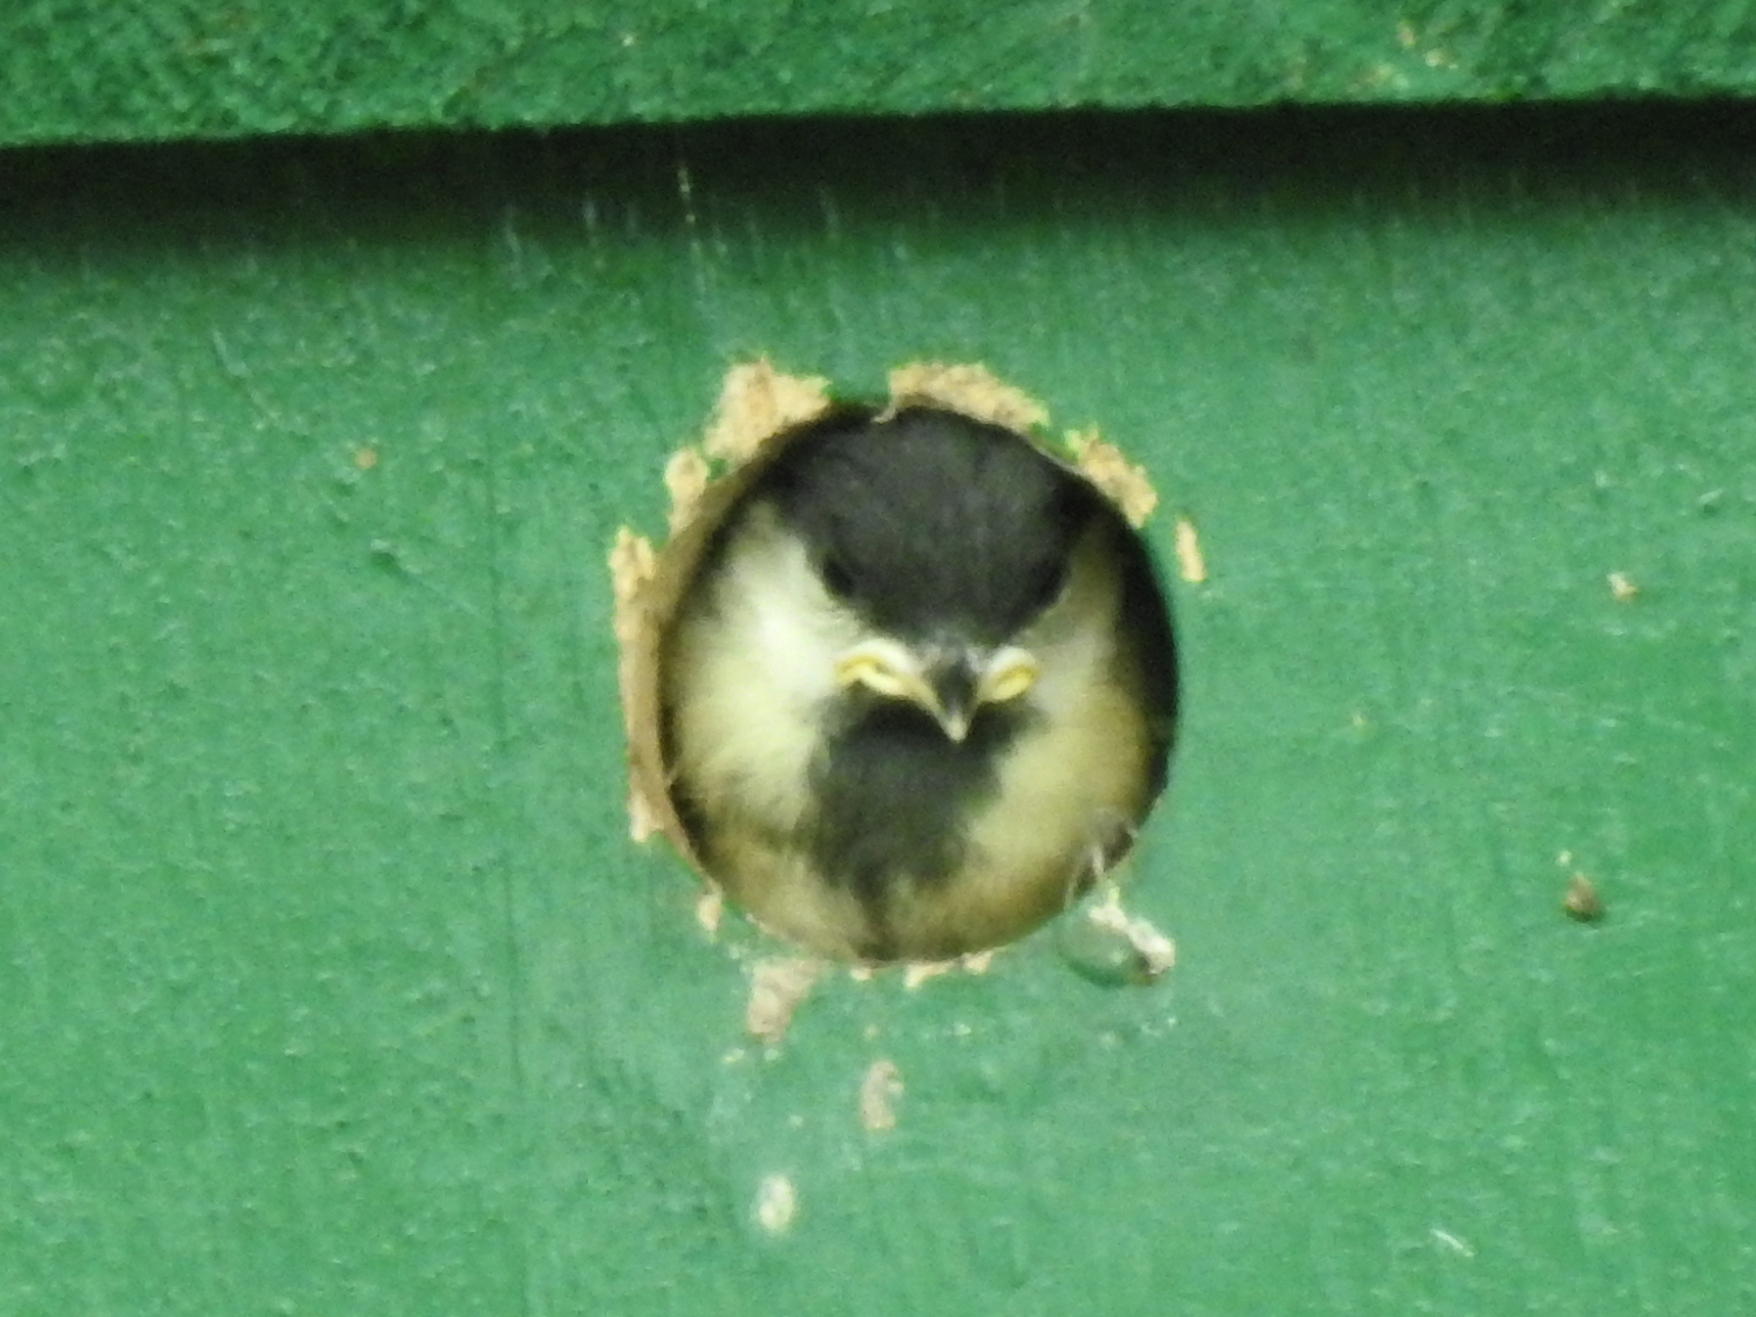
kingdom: Animalia
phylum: Chordata
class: Aves
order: Passeriformes
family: Paridae
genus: Parus
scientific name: Parus major
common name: Great tit
